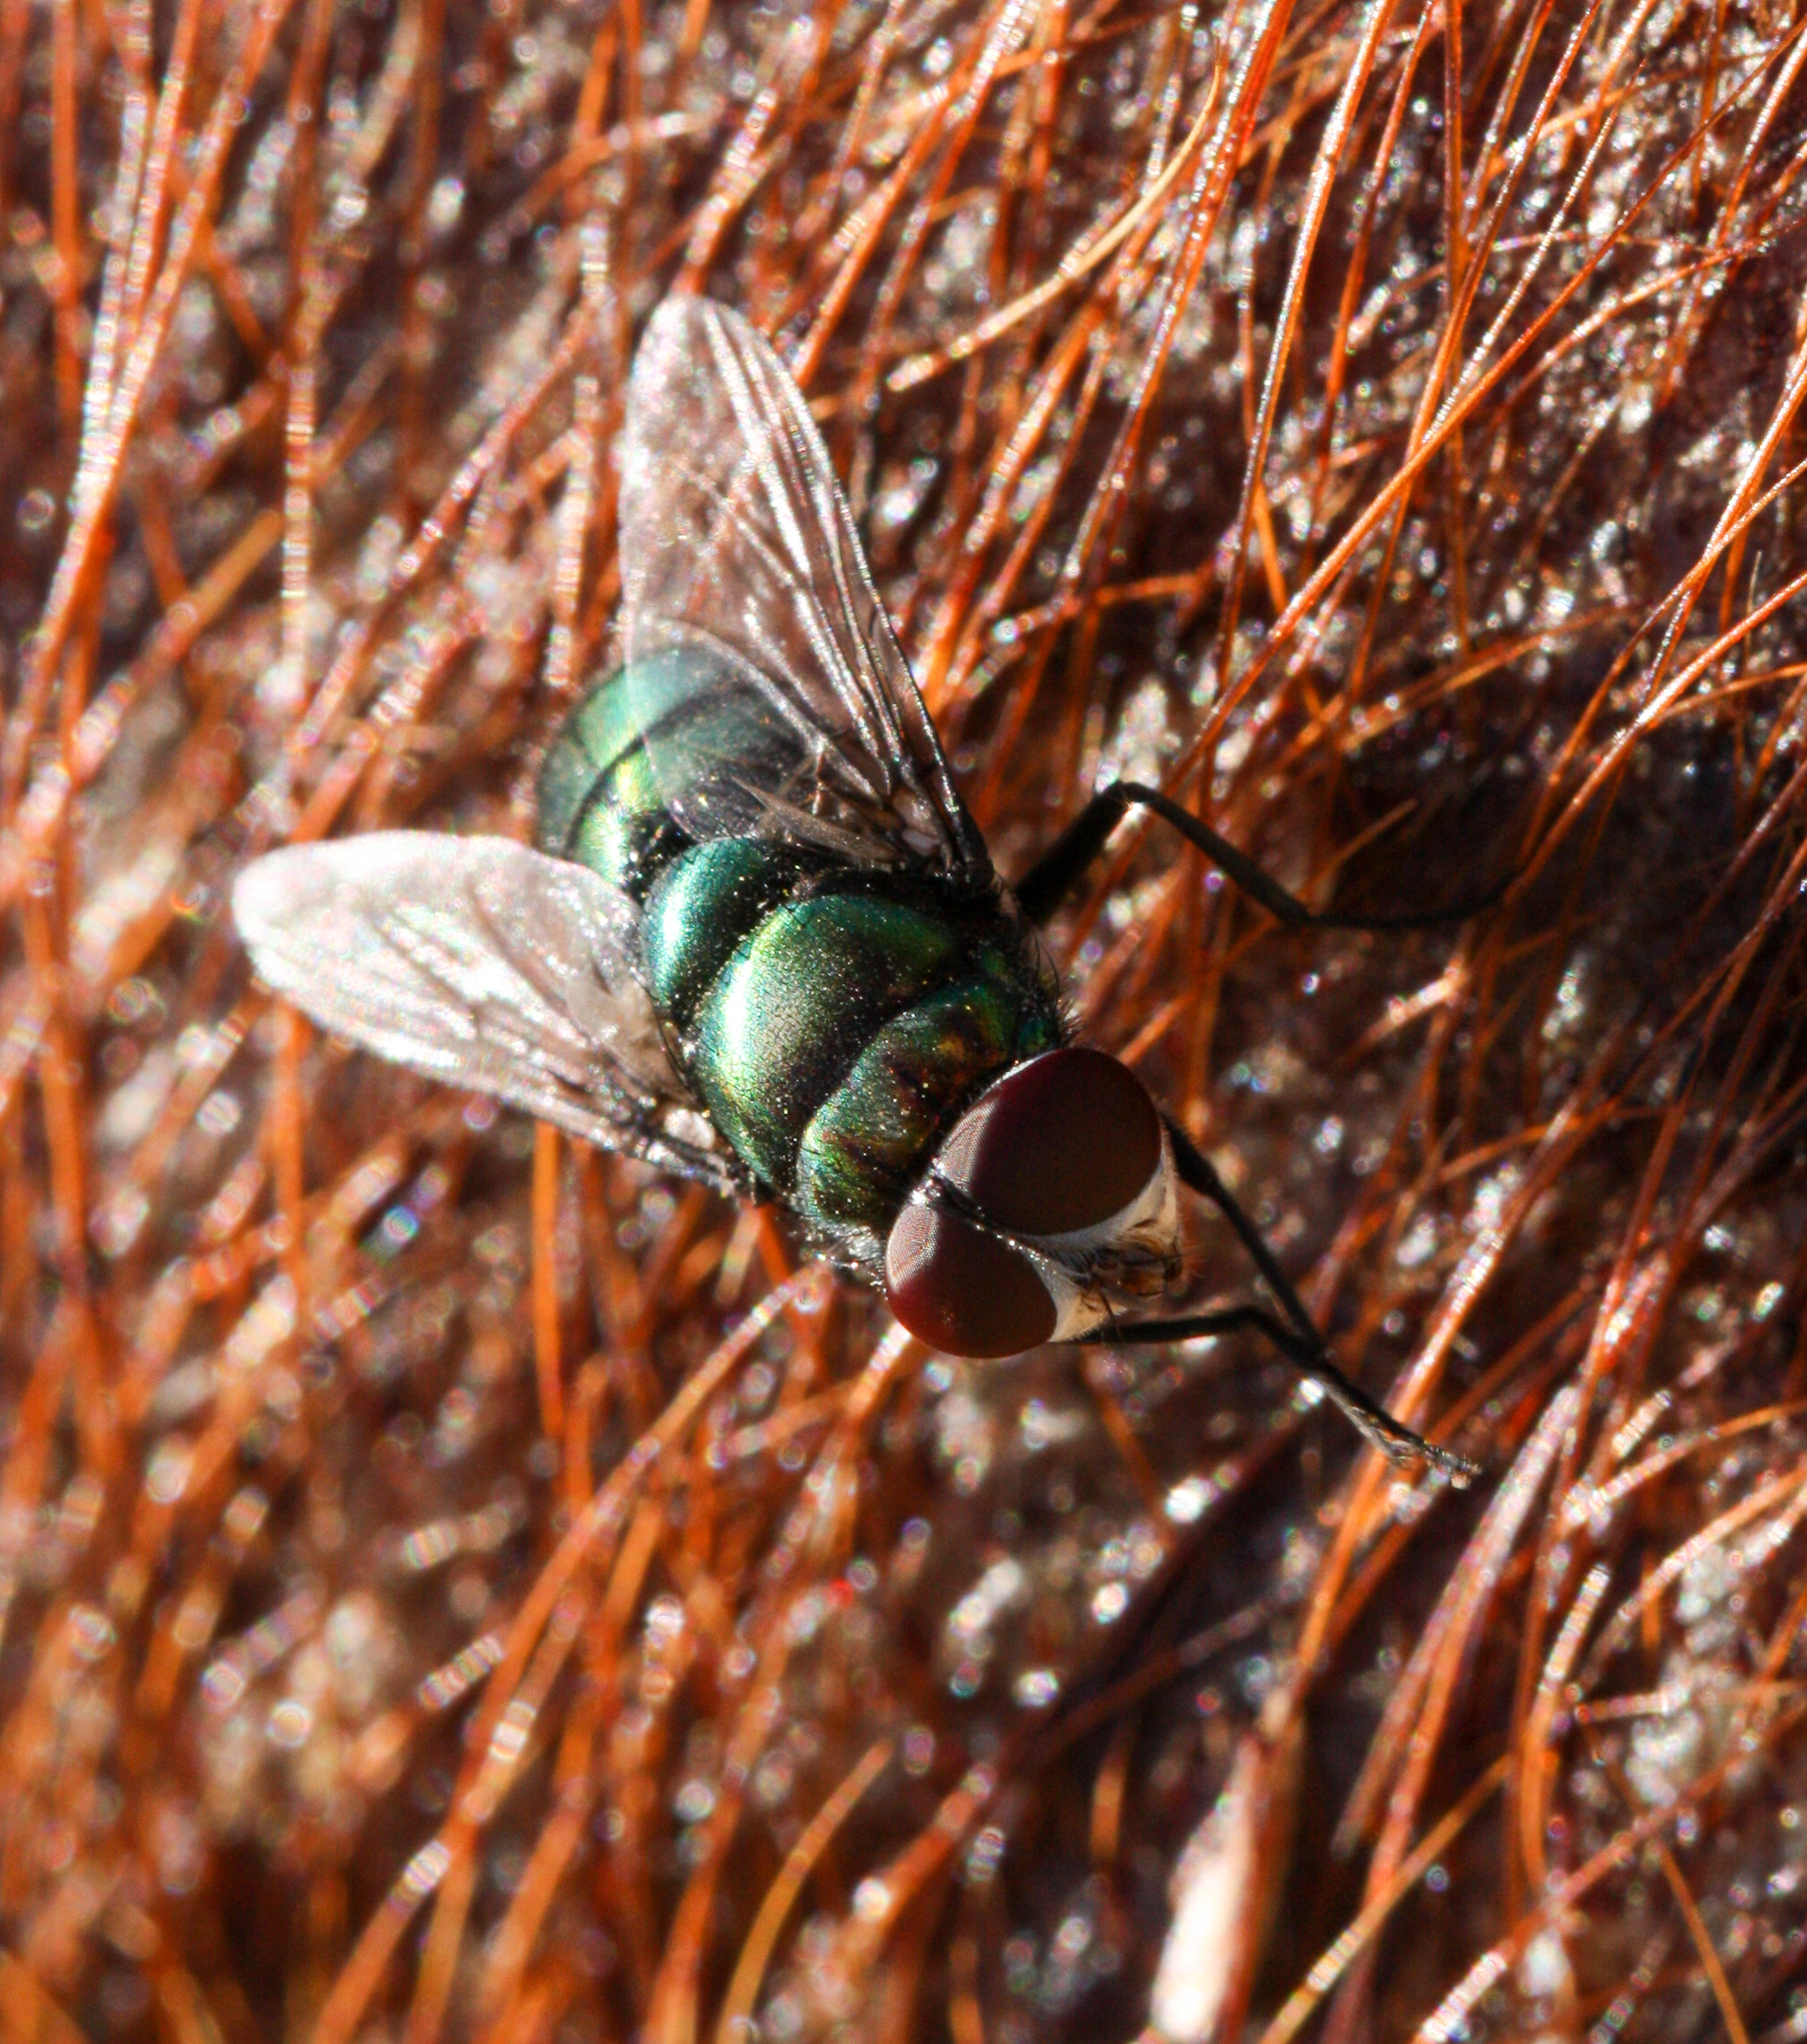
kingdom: Animalia
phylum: Arthropoda
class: Insecta
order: Diptera
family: Calliphoridae
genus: Chrysomya
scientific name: Chrysomya rufifacies
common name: Blow fly
